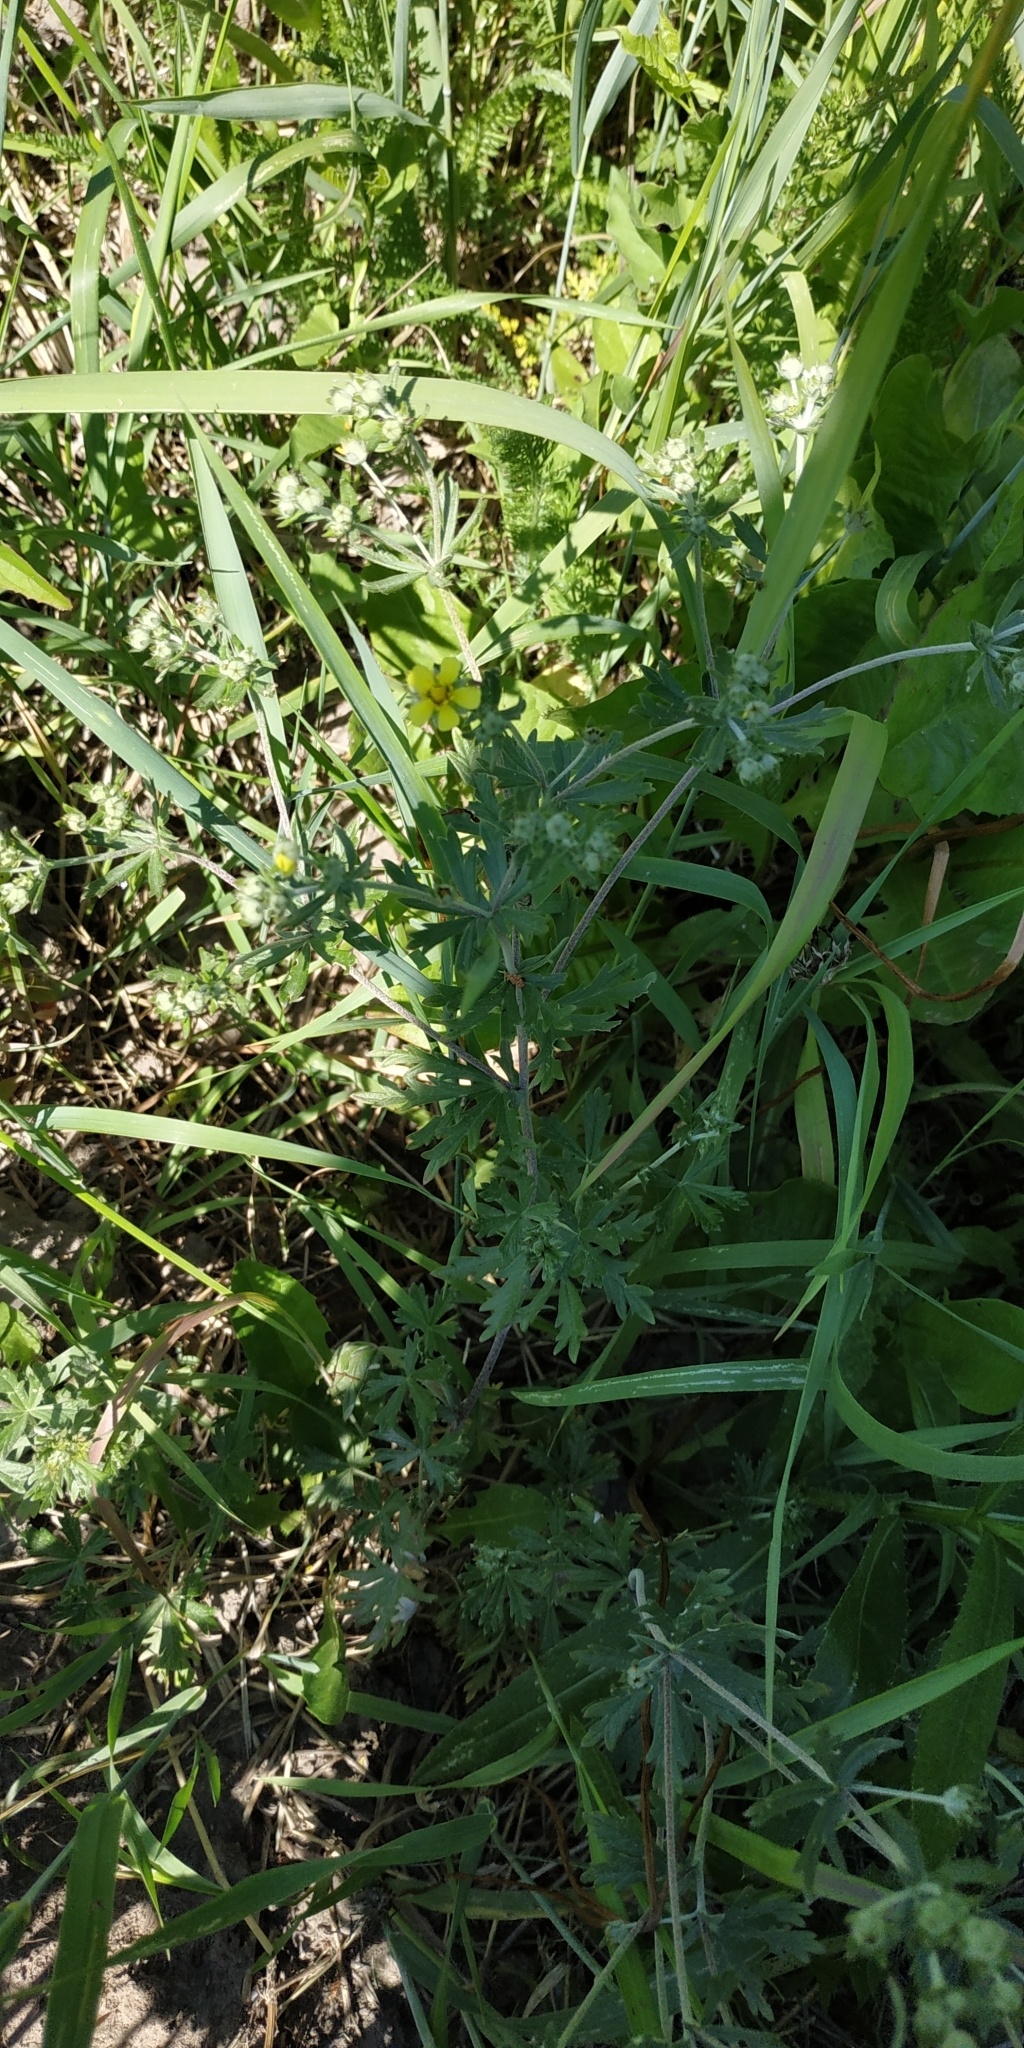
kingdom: Plantae
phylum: Tracheophyta
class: Magnoliopsida
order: Rosales
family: Rosaceae
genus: Potentilla
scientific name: Potentilla argentea
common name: Hoary cinquefoil
